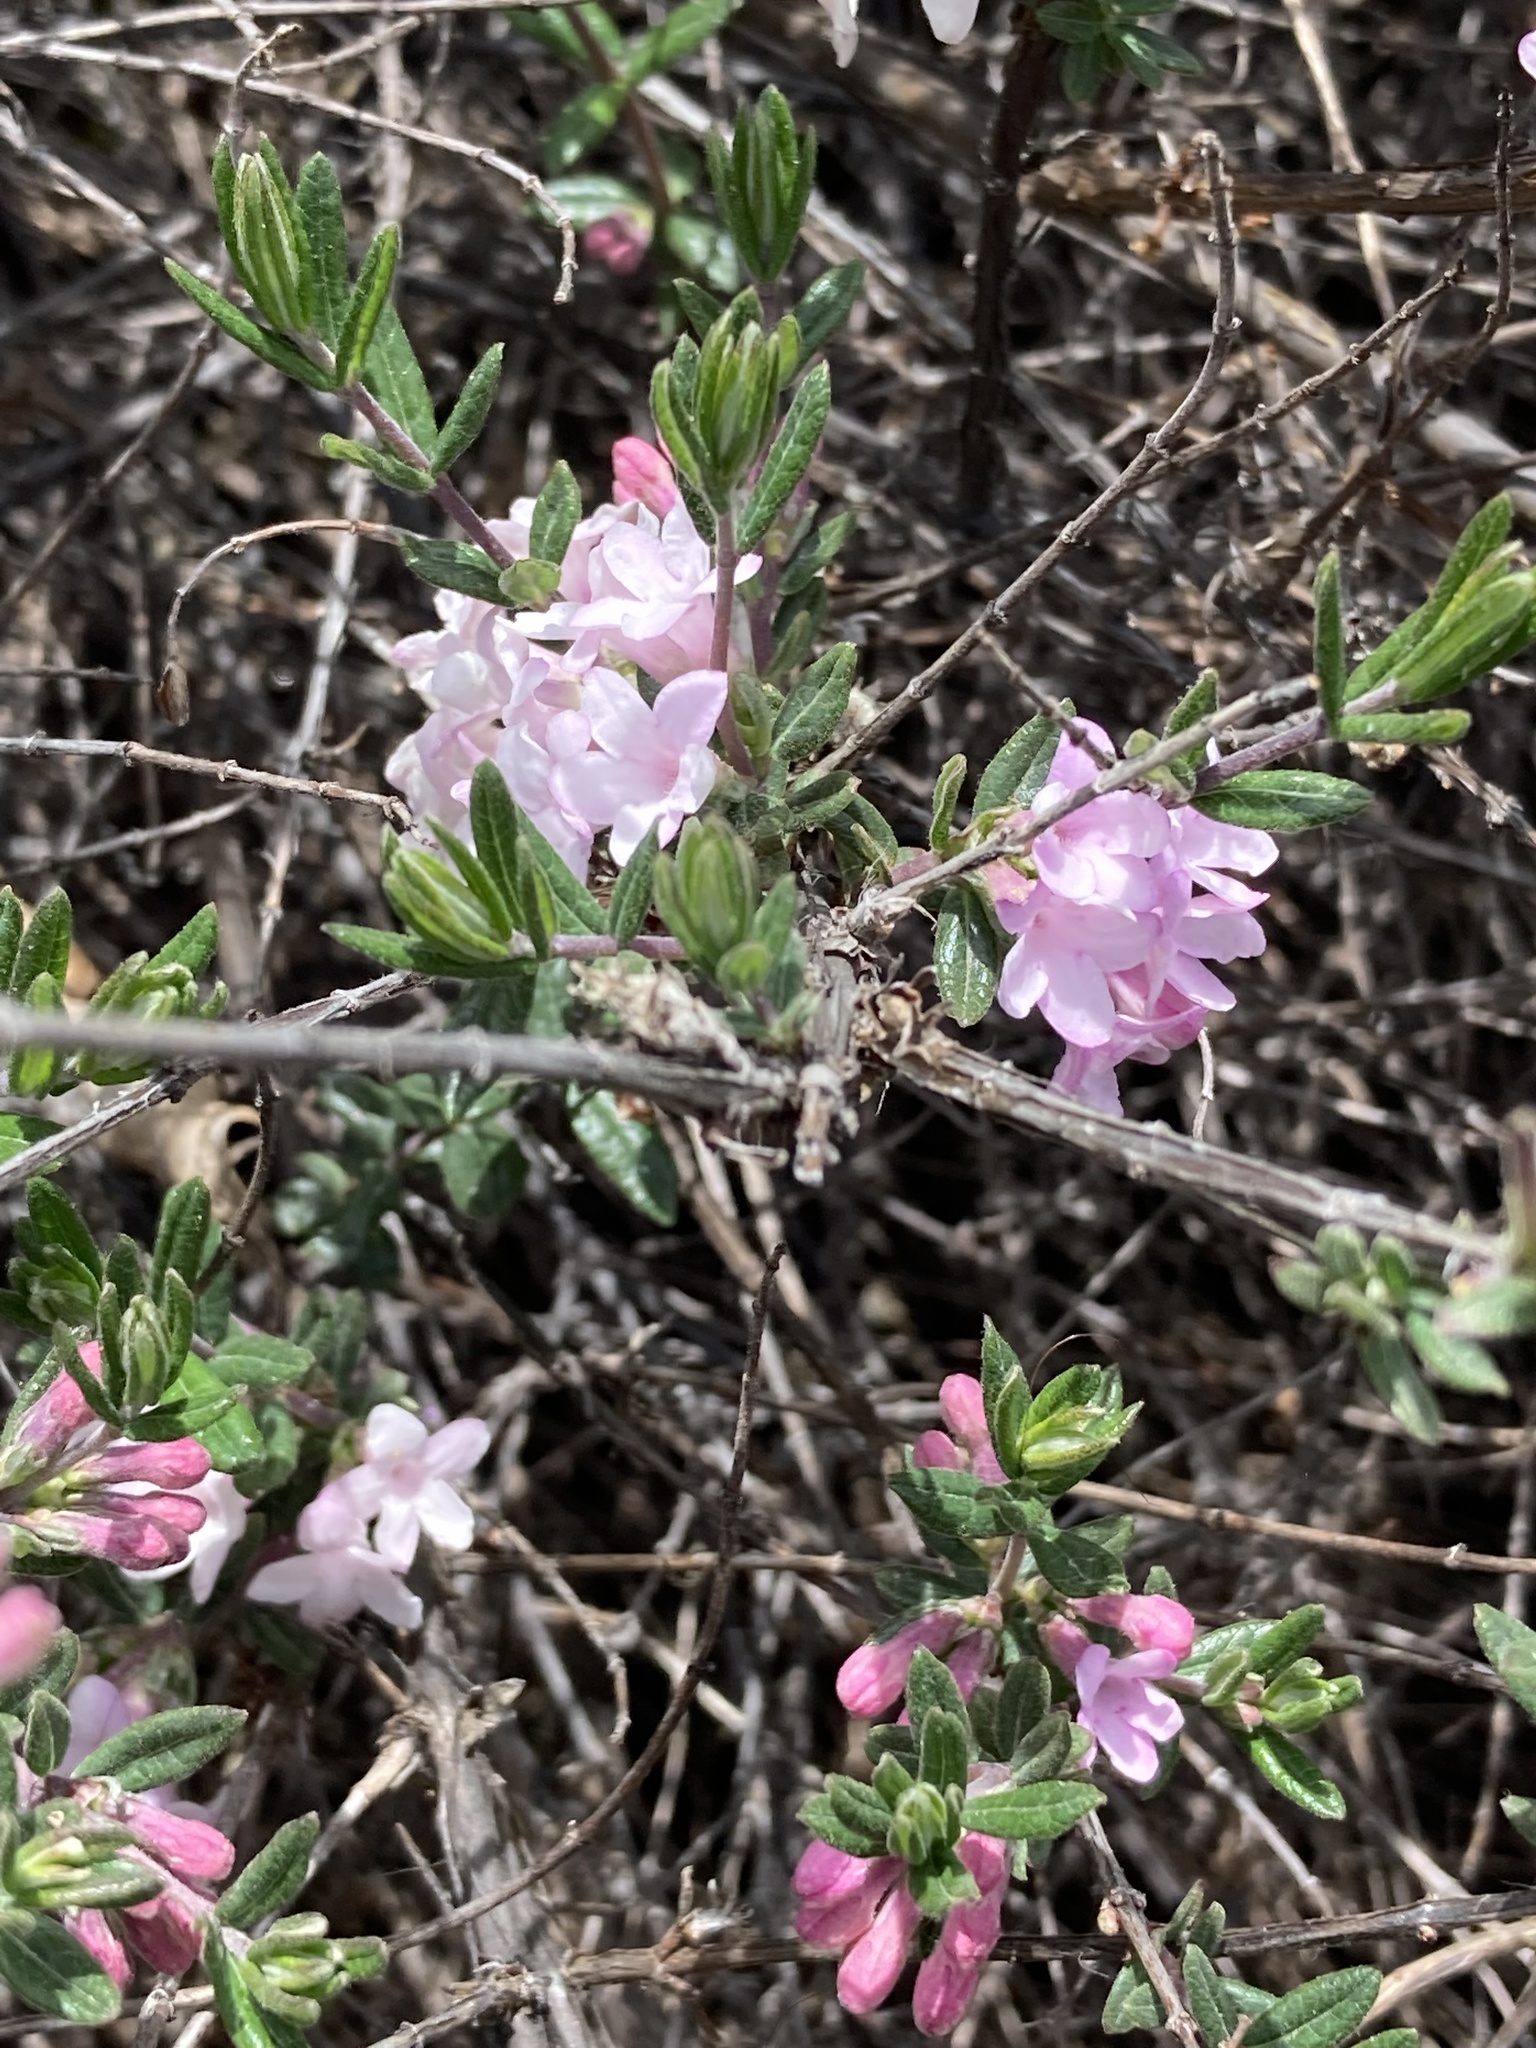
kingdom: Plantae
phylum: Tracheophyta
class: Magnoliopsida
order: Dipsacales
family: Caprifoliaceae
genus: Lonicera
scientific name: Lonicera rupicola
